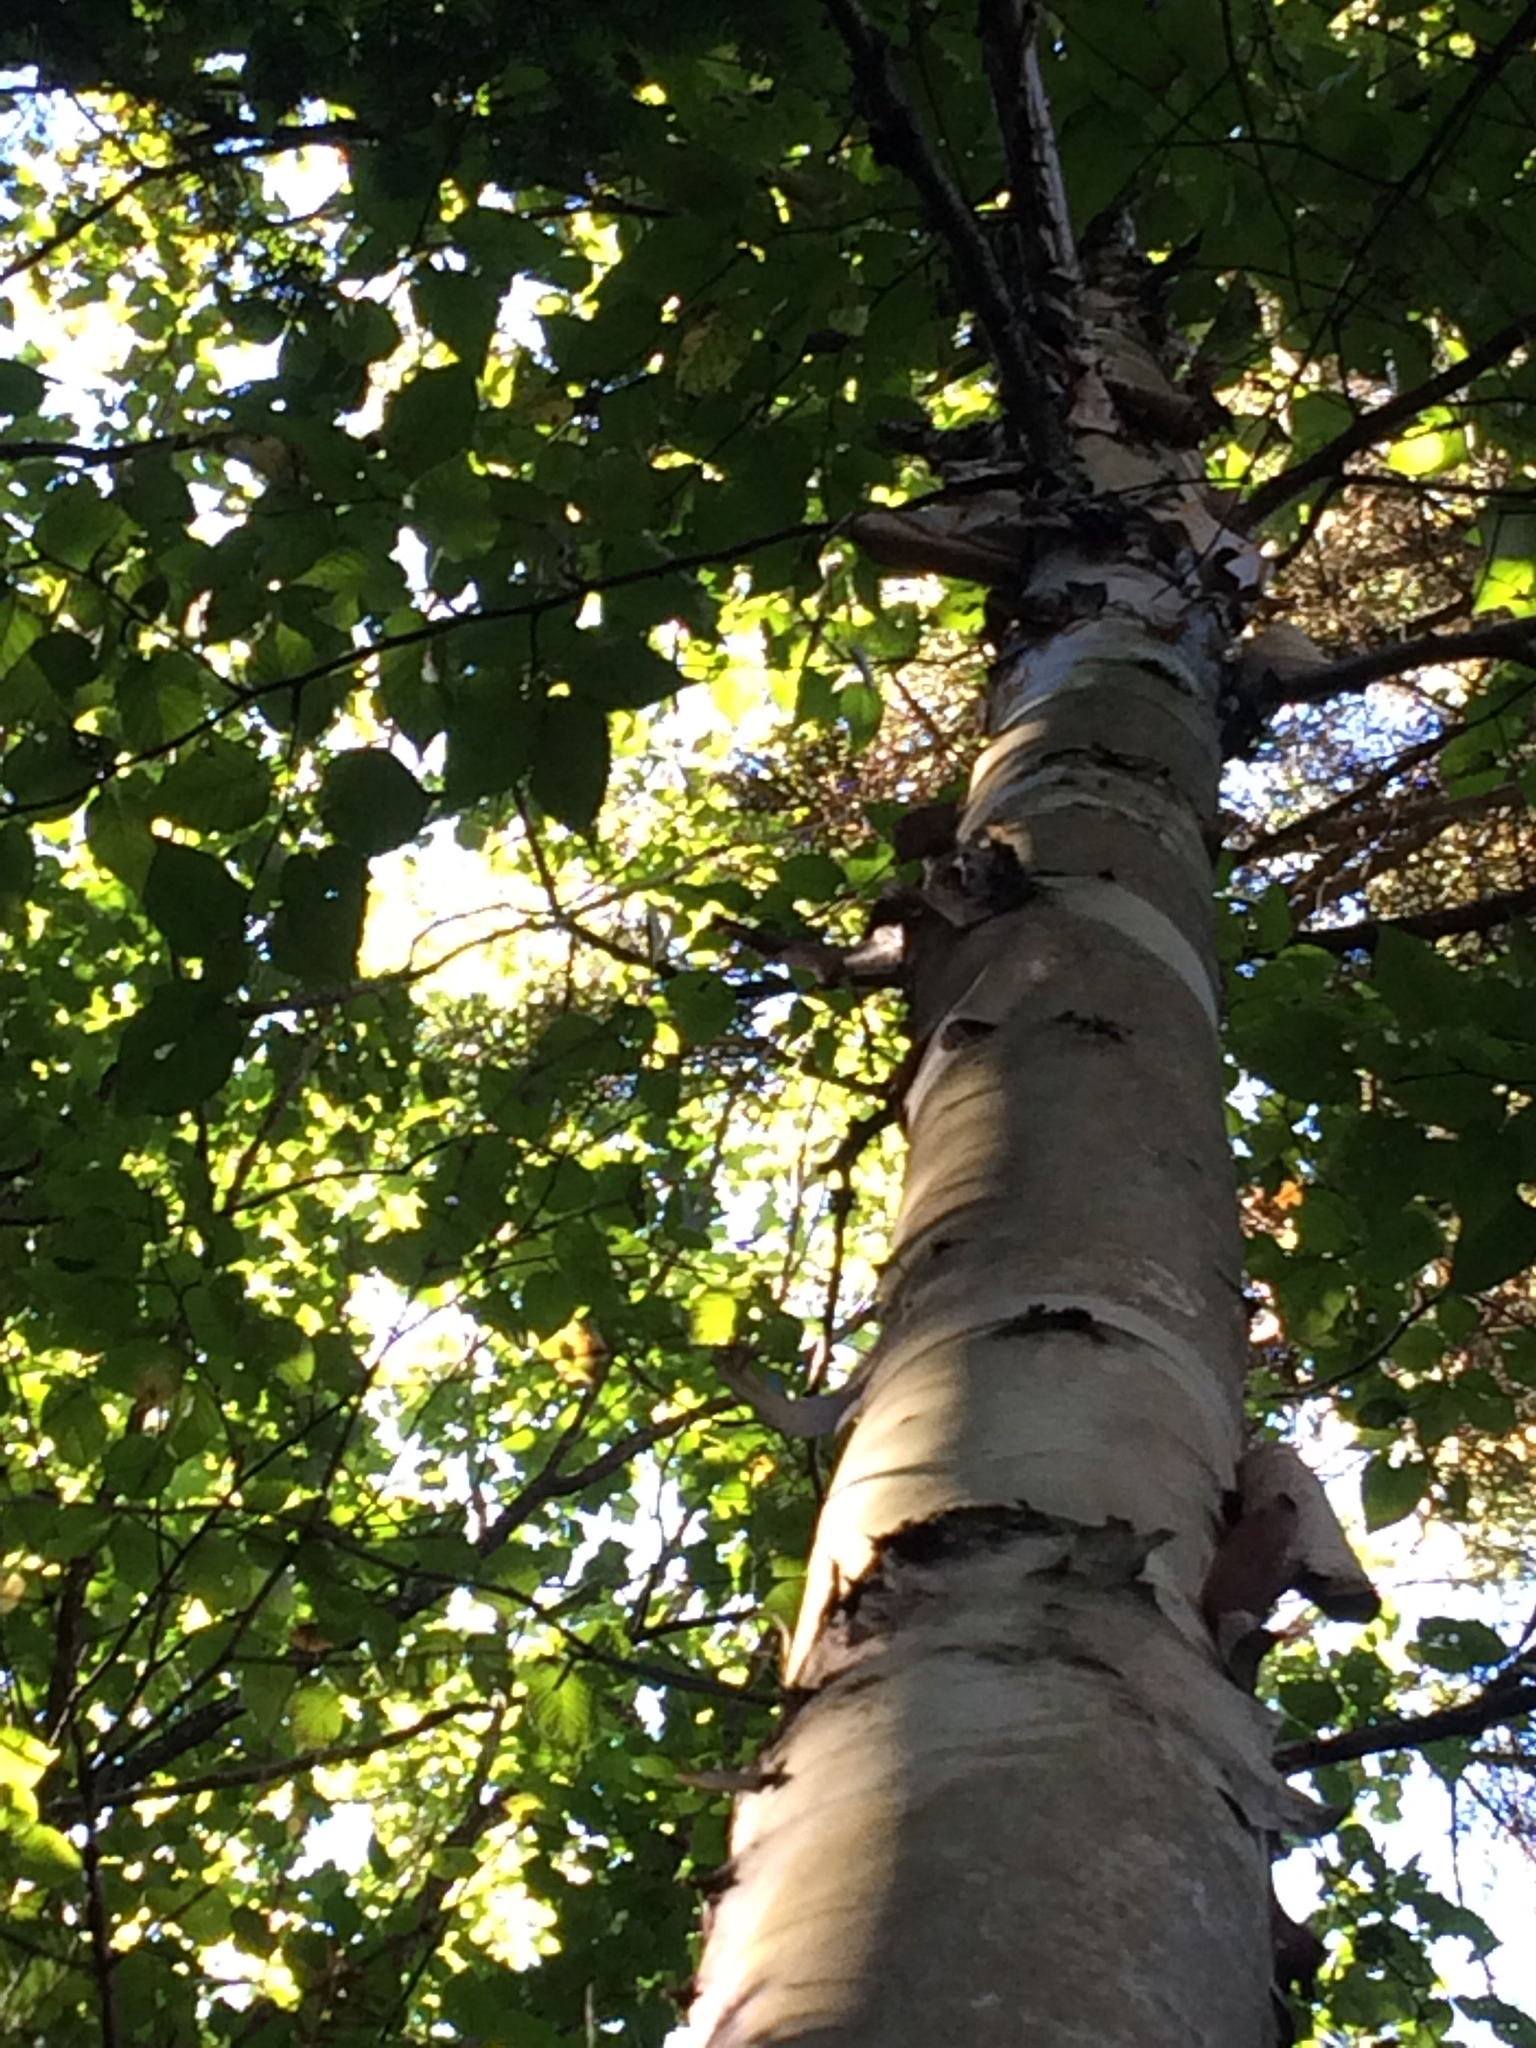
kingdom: Plantae
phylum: Tracheophyta
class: Magnoliopsida
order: Fagales
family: Betulaceae
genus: Betula
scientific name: Betula cordifolia
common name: Mountain white birch
